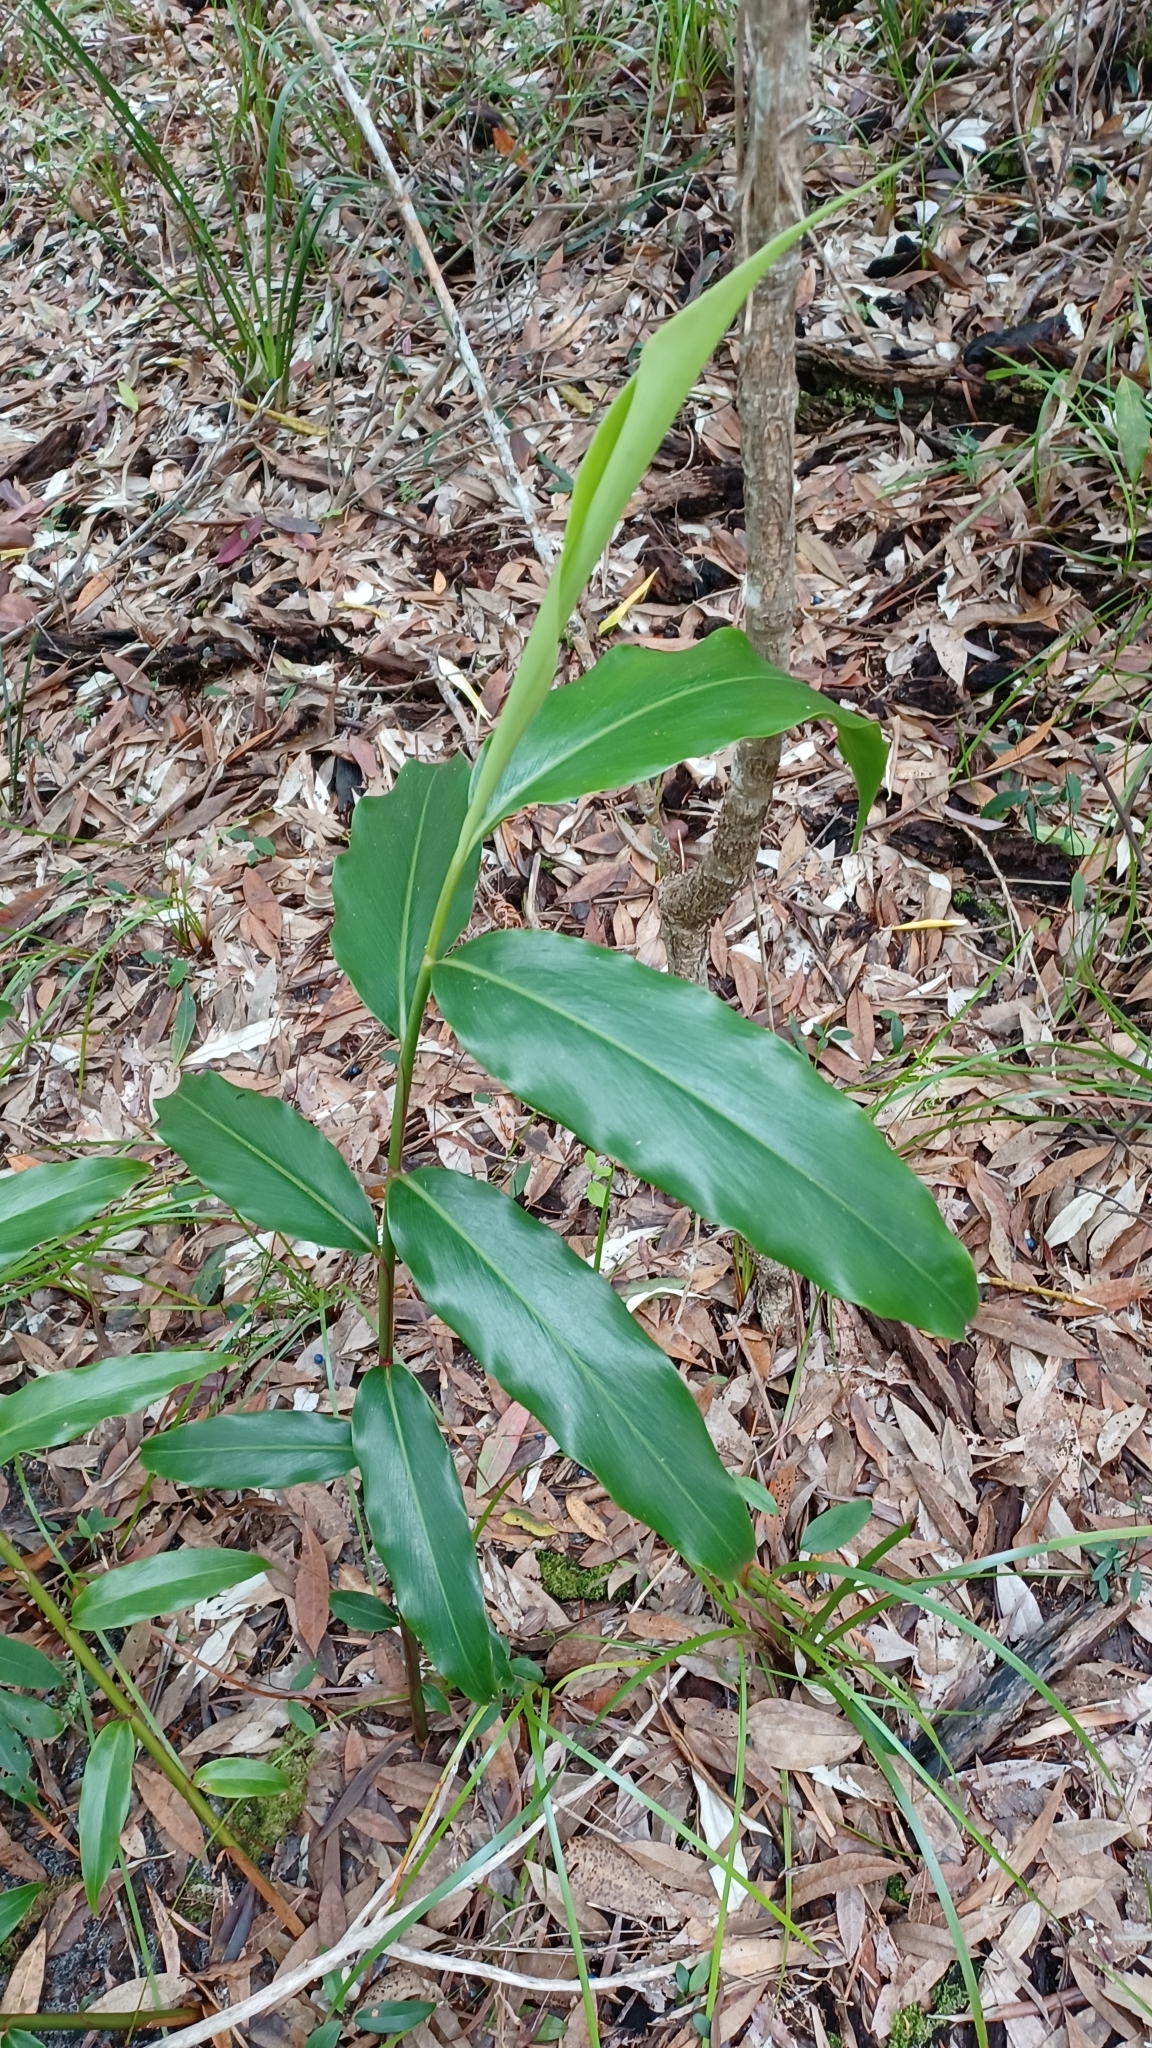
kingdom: Plantae
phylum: Tracheophyta
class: Liliopsida
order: Zingiberales
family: Zingiberaceae
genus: Alpinia
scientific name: Alpinia arundelliana
